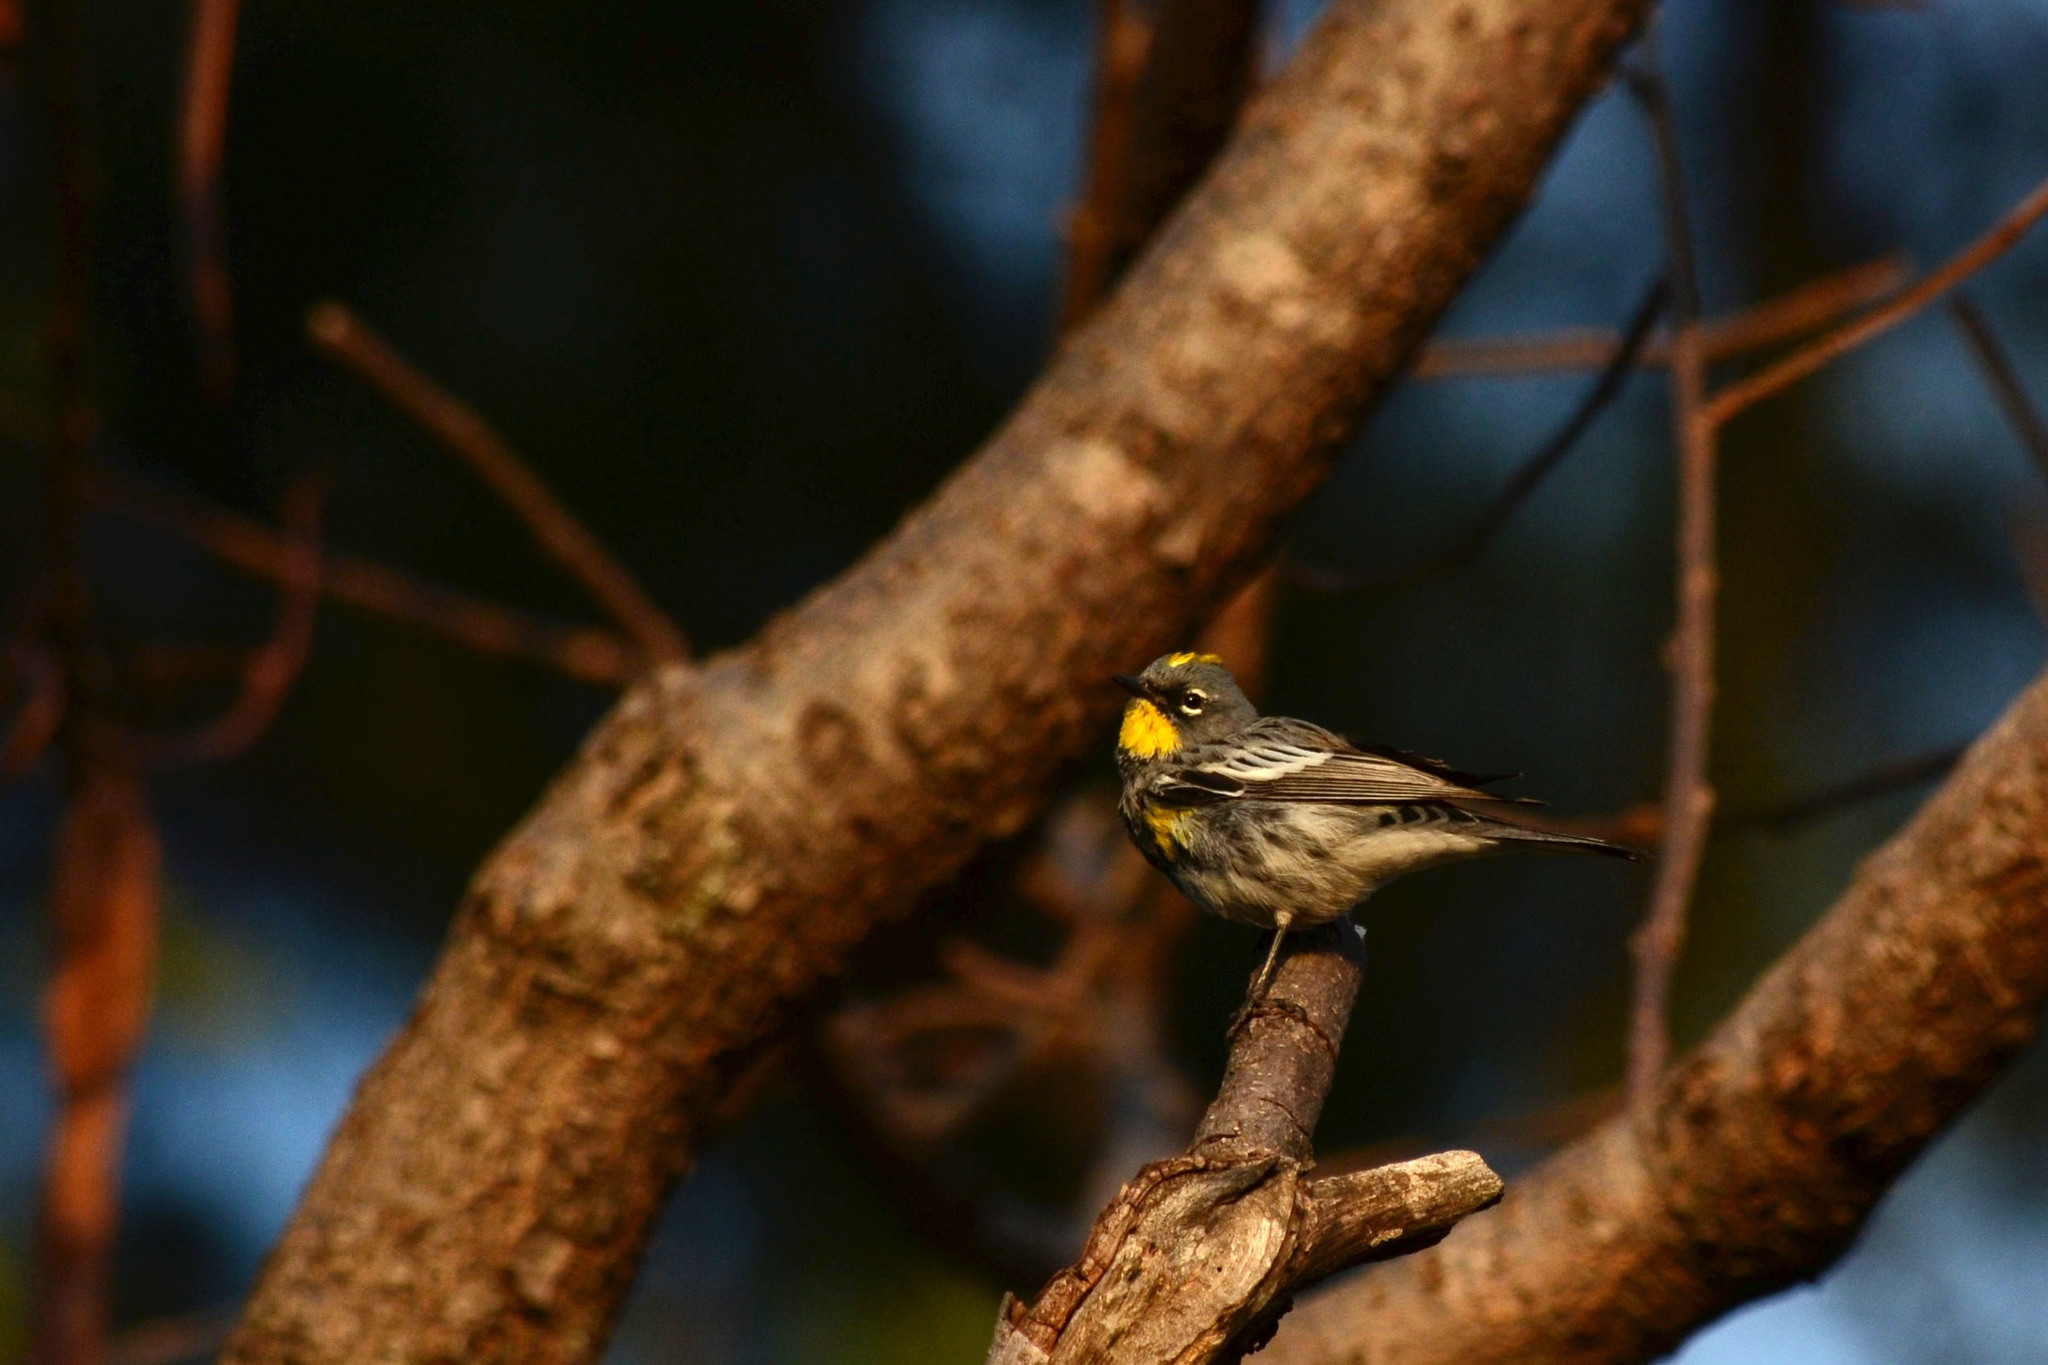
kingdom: Animalia
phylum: Chordata
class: Aves
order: Passeriformes
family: Parulidae
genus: Setophaga
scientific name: Setophaga coronata
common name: Myrtle warbler
